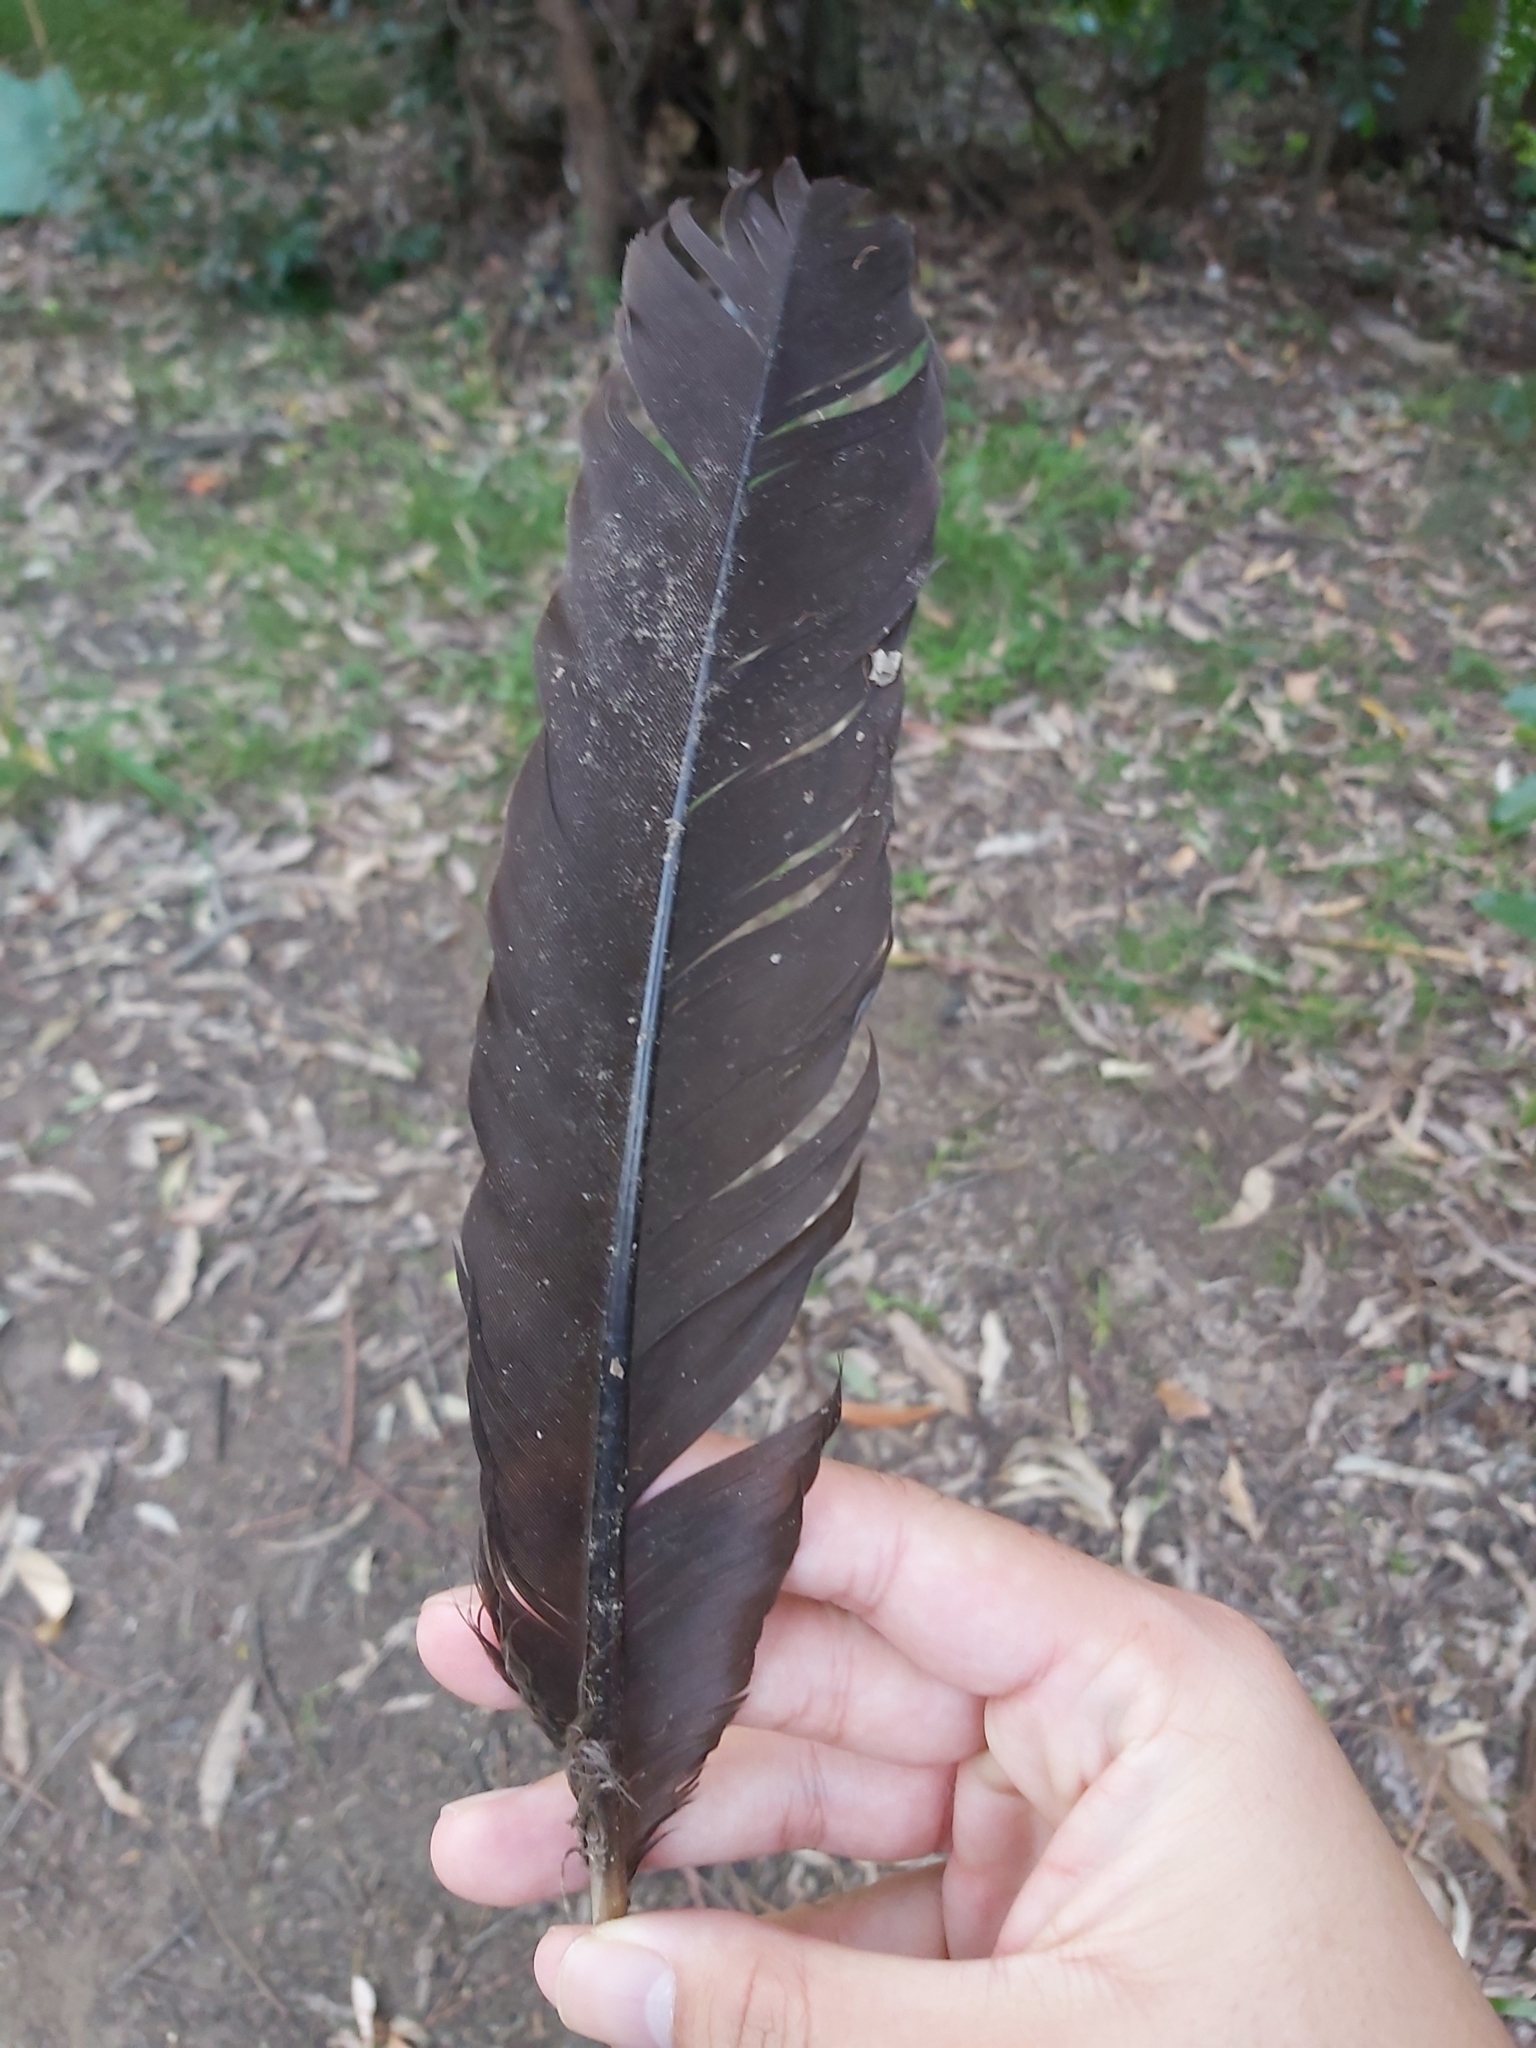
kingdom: Animalia
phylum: Chordata
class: Aves
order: Galliformes
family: Megapodiidae
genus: Alectura
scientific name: Alectura lathami
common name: Australian brushturkey
